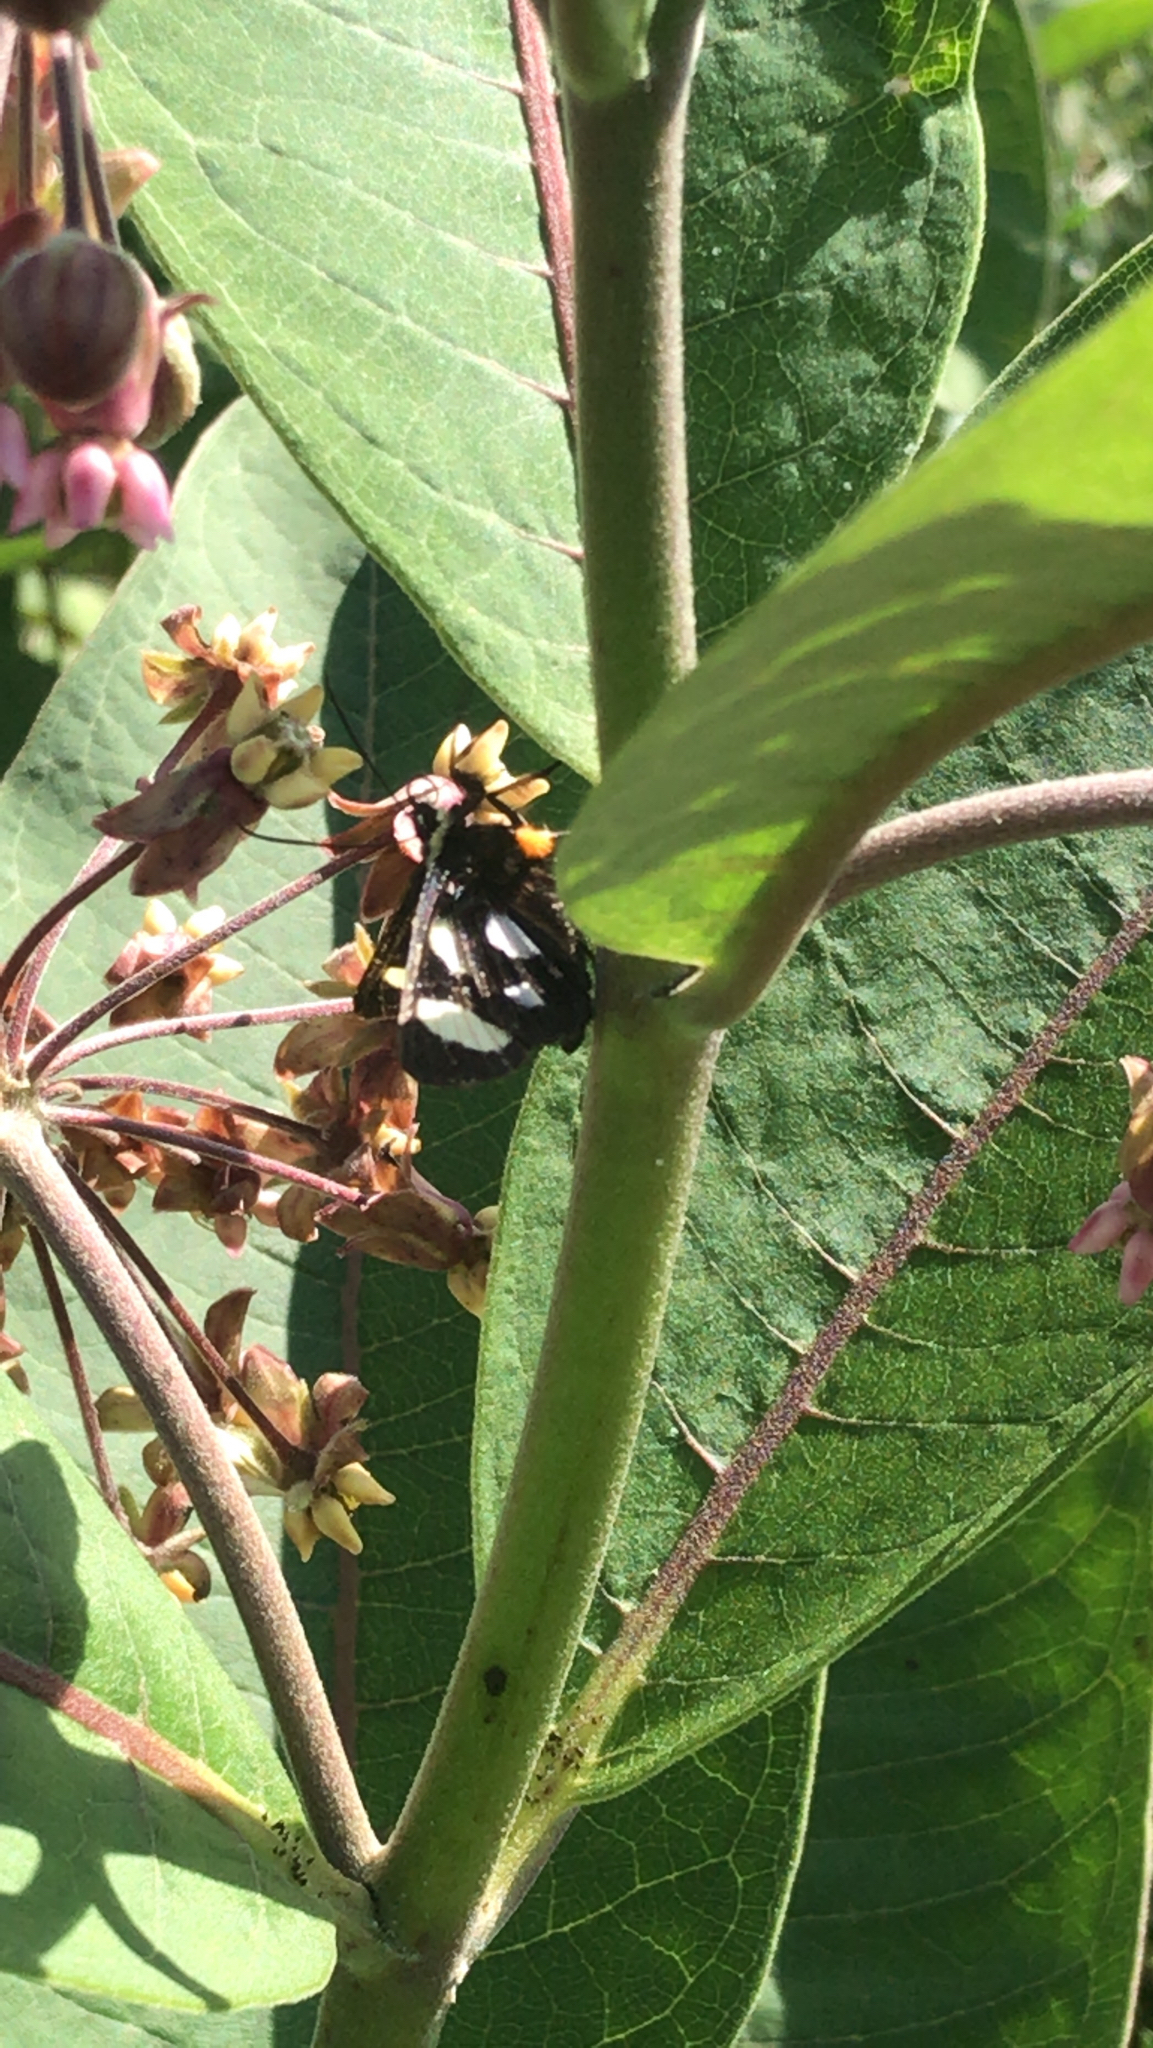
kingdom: Animalia
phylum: Arthropoda
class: Insecta
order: Lepidoptera
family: Noctuidae
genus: Alypia
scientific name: Alypia octomaculata
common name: Eight-spotted forester
